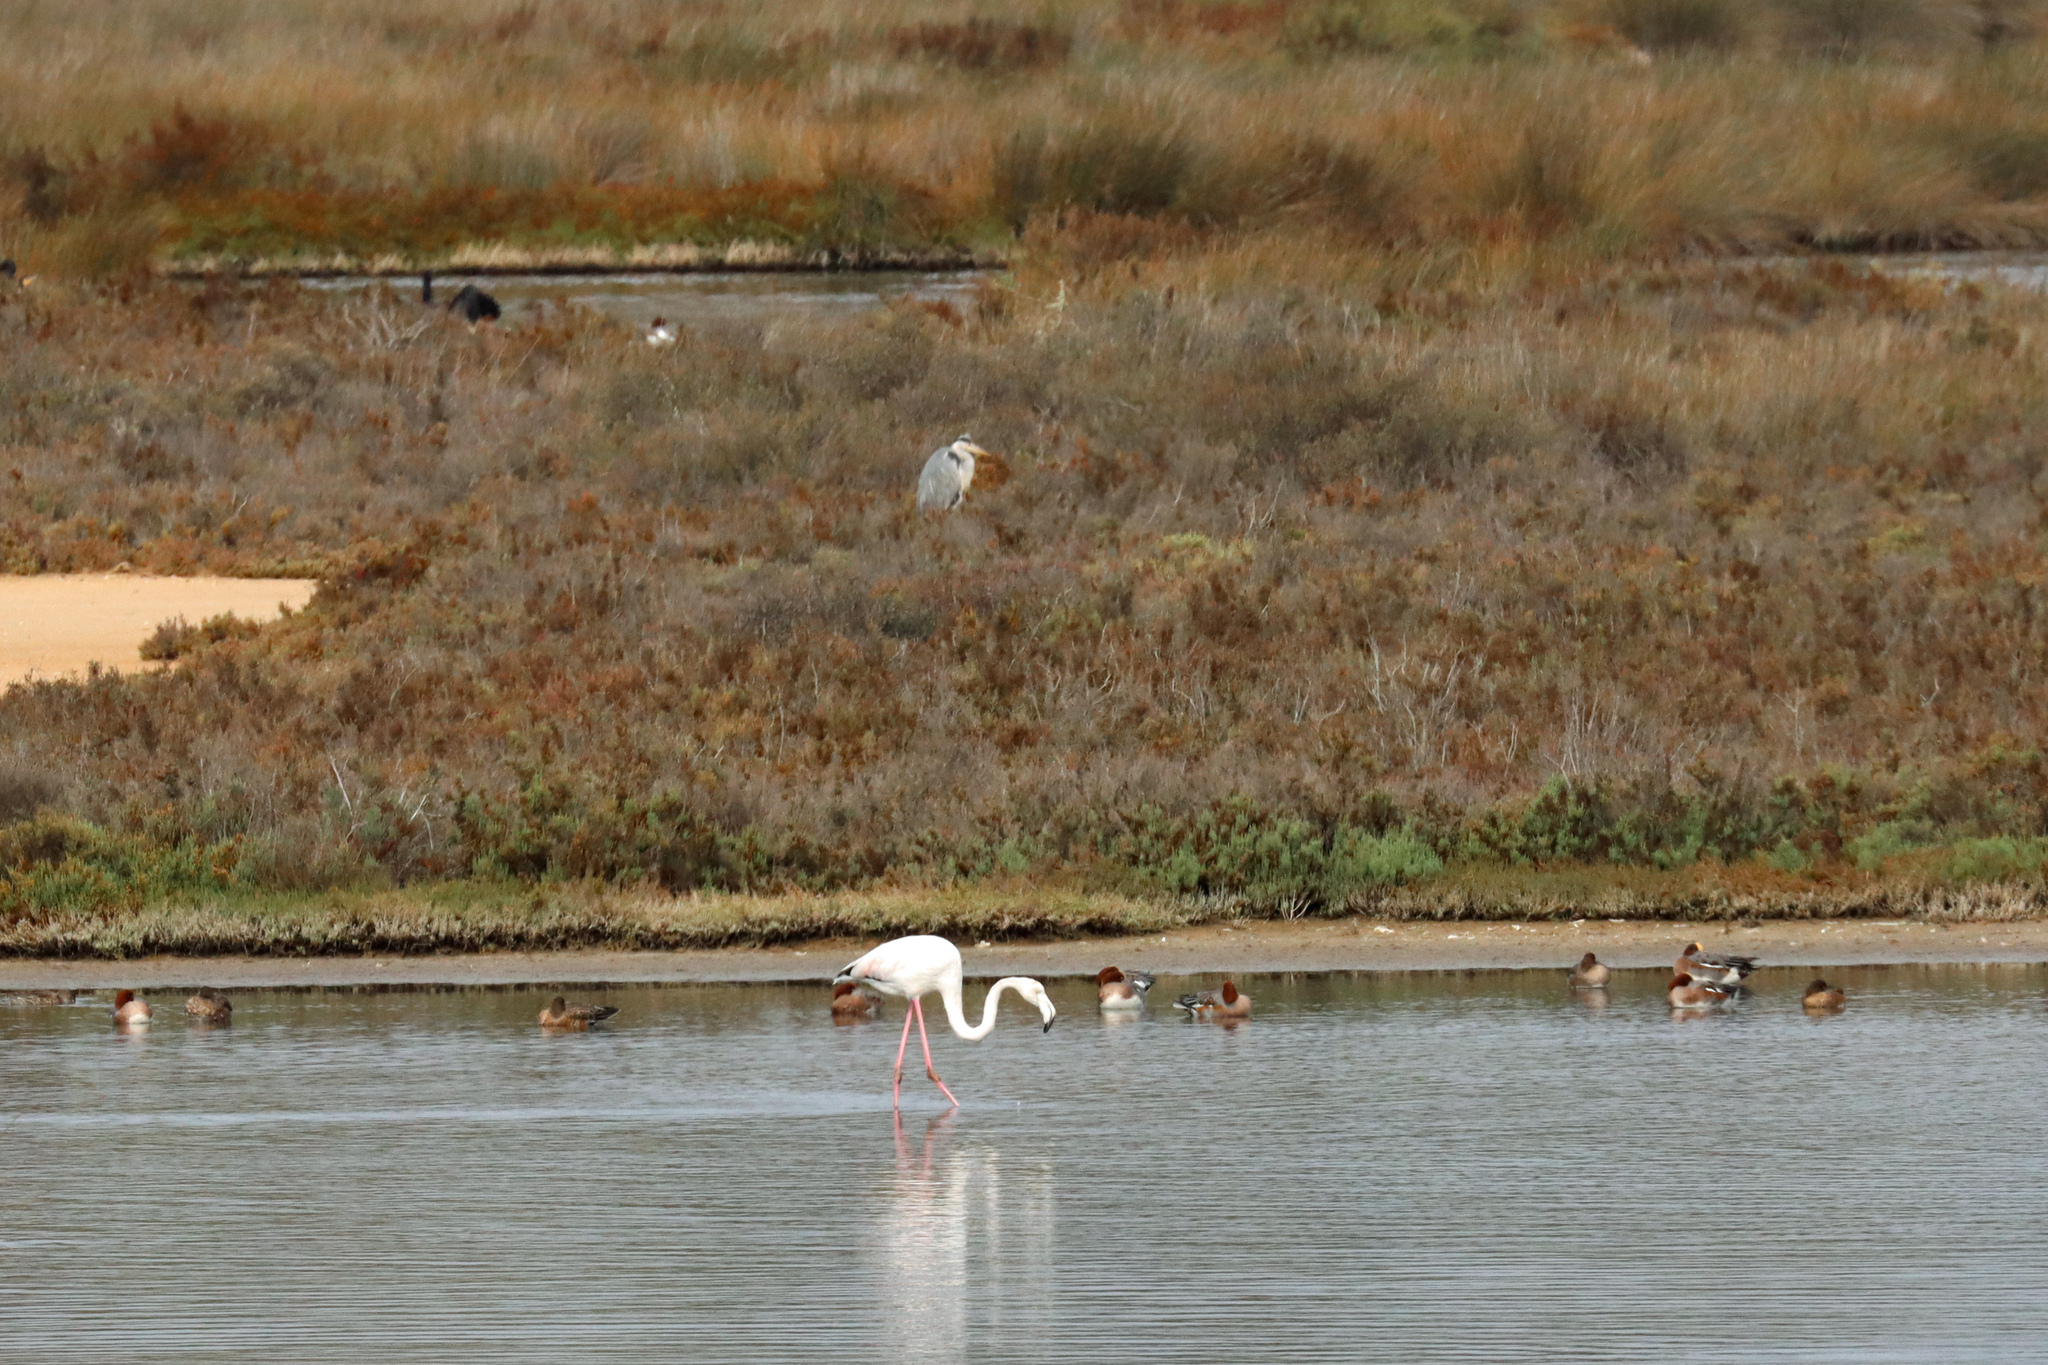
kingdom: Animalia
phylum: Chordata
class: Aves
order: Phoenicopteriformes
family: Phoenicopteridae
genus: Phoenicopterus
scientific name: Phoenicopterus roseus
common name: Greater flamingo
